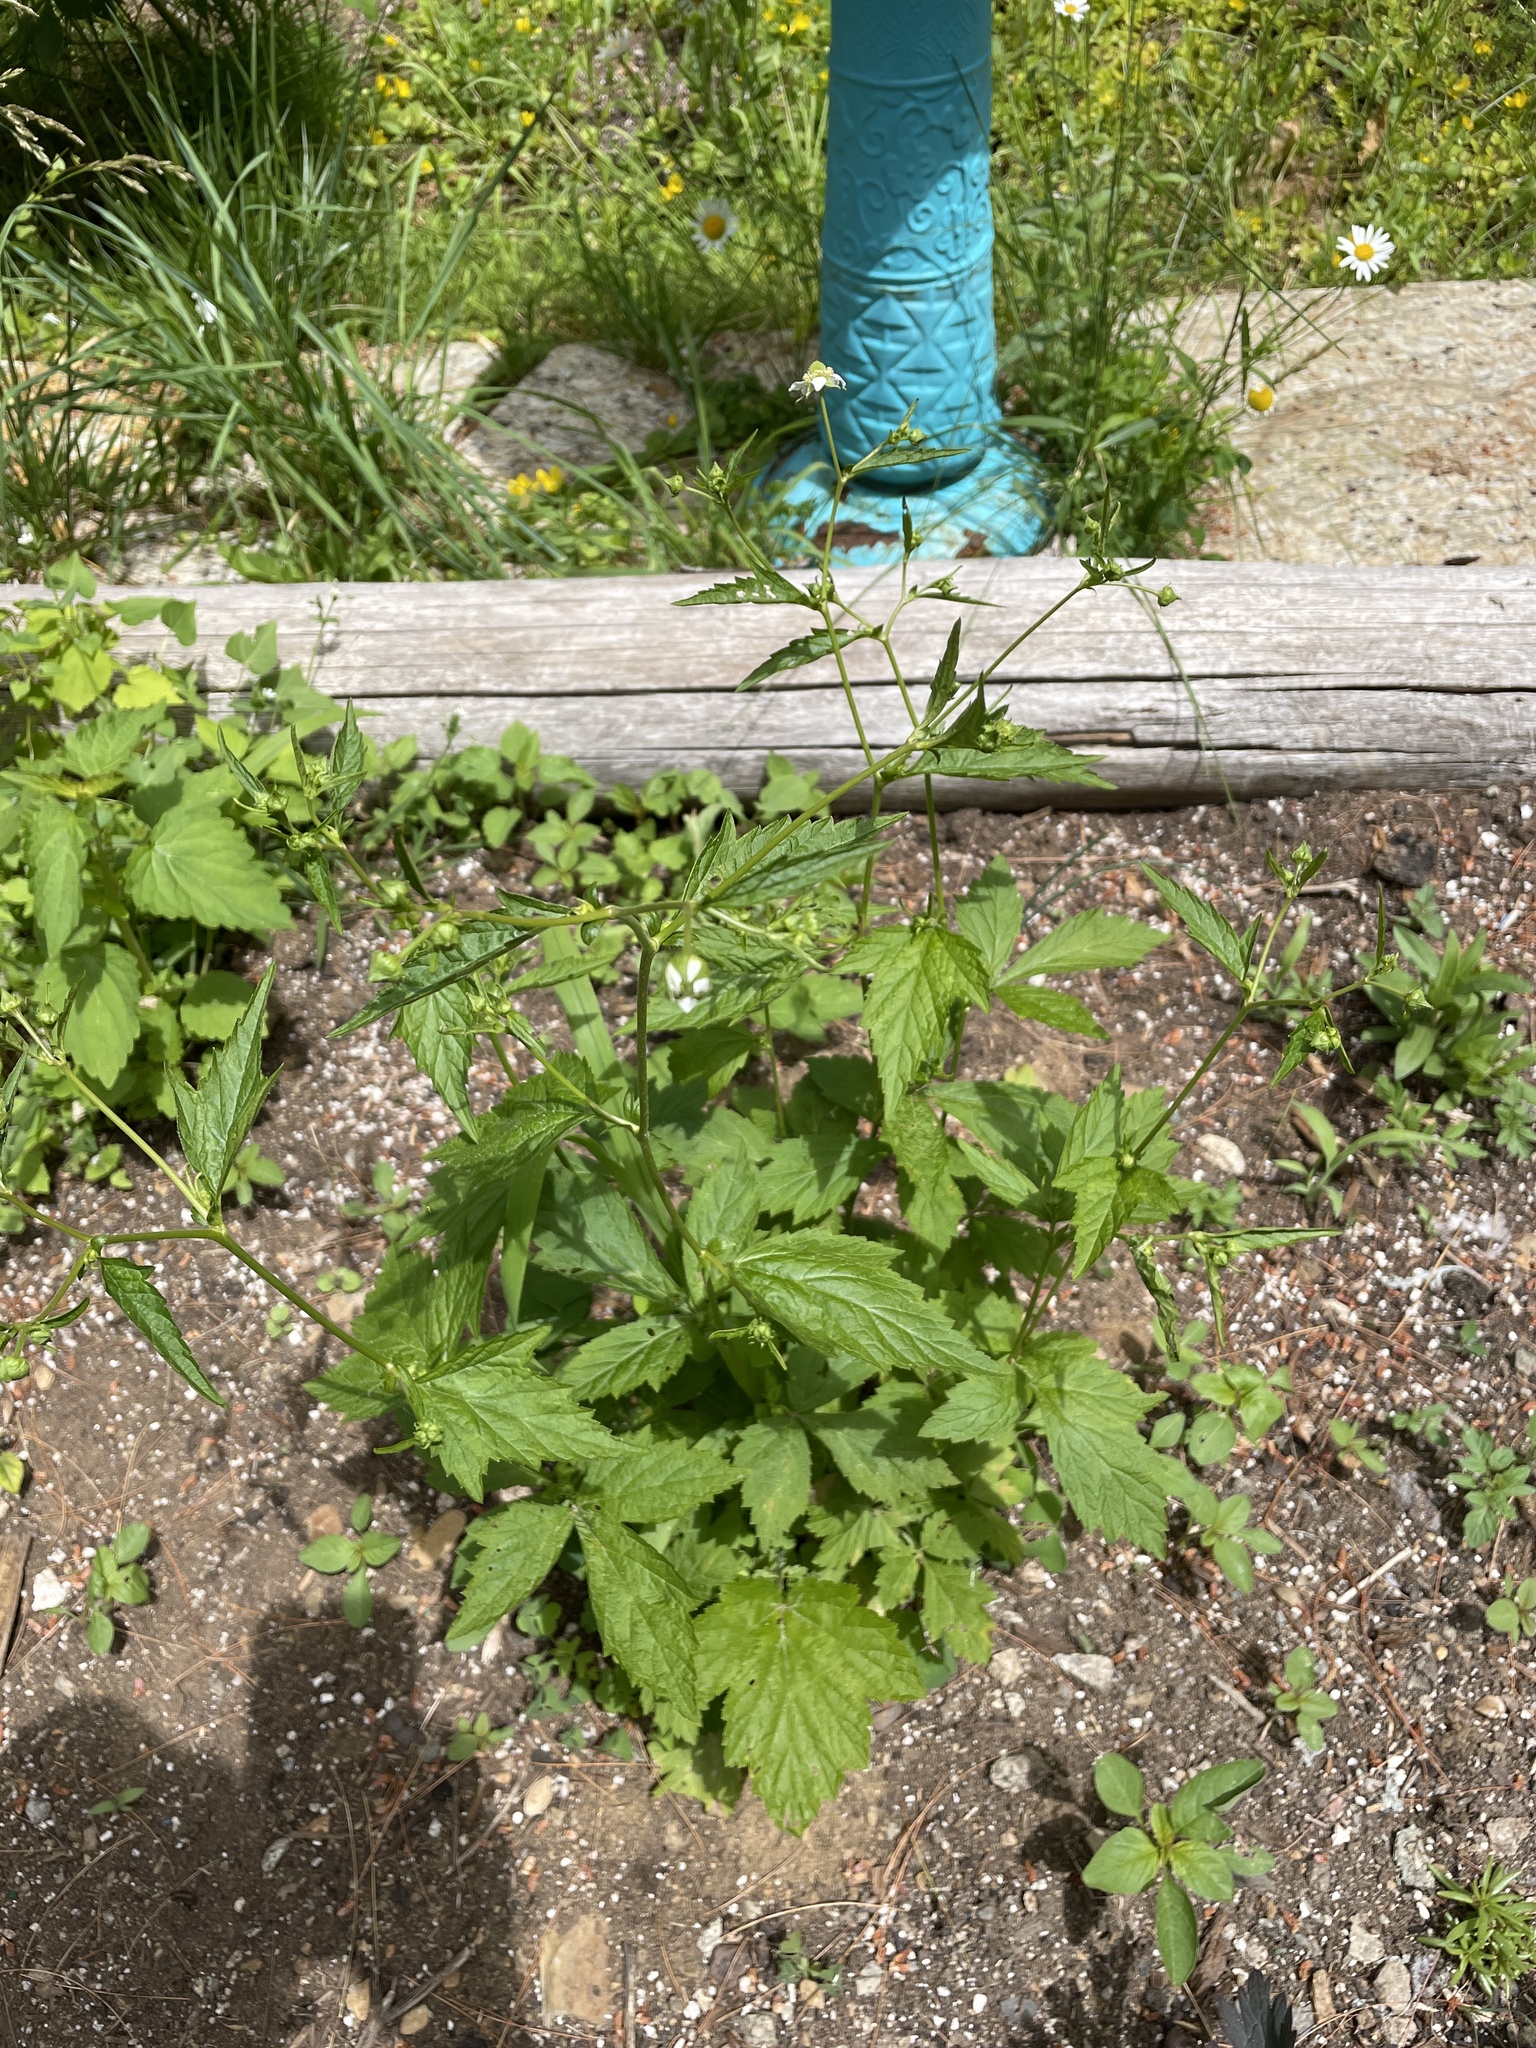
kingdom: Plantae
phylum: Tracheophyta
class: Magnoliopsida
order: Rosales
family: Rosaceae
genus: Geum
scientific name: Geum canadense
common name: White avens
